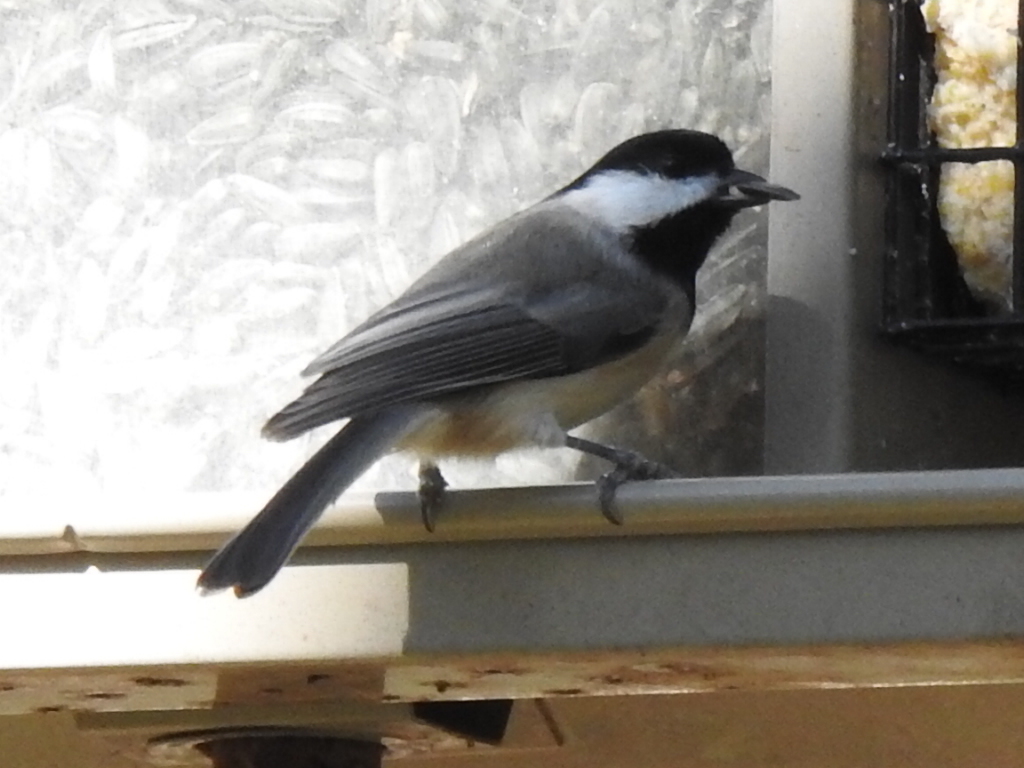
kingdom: Animalia
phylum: Chordata
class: Aves
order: Passeriformes
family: Paridae
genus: Poecile
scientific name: Poecile carolinensis
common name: Carolina chickadee
